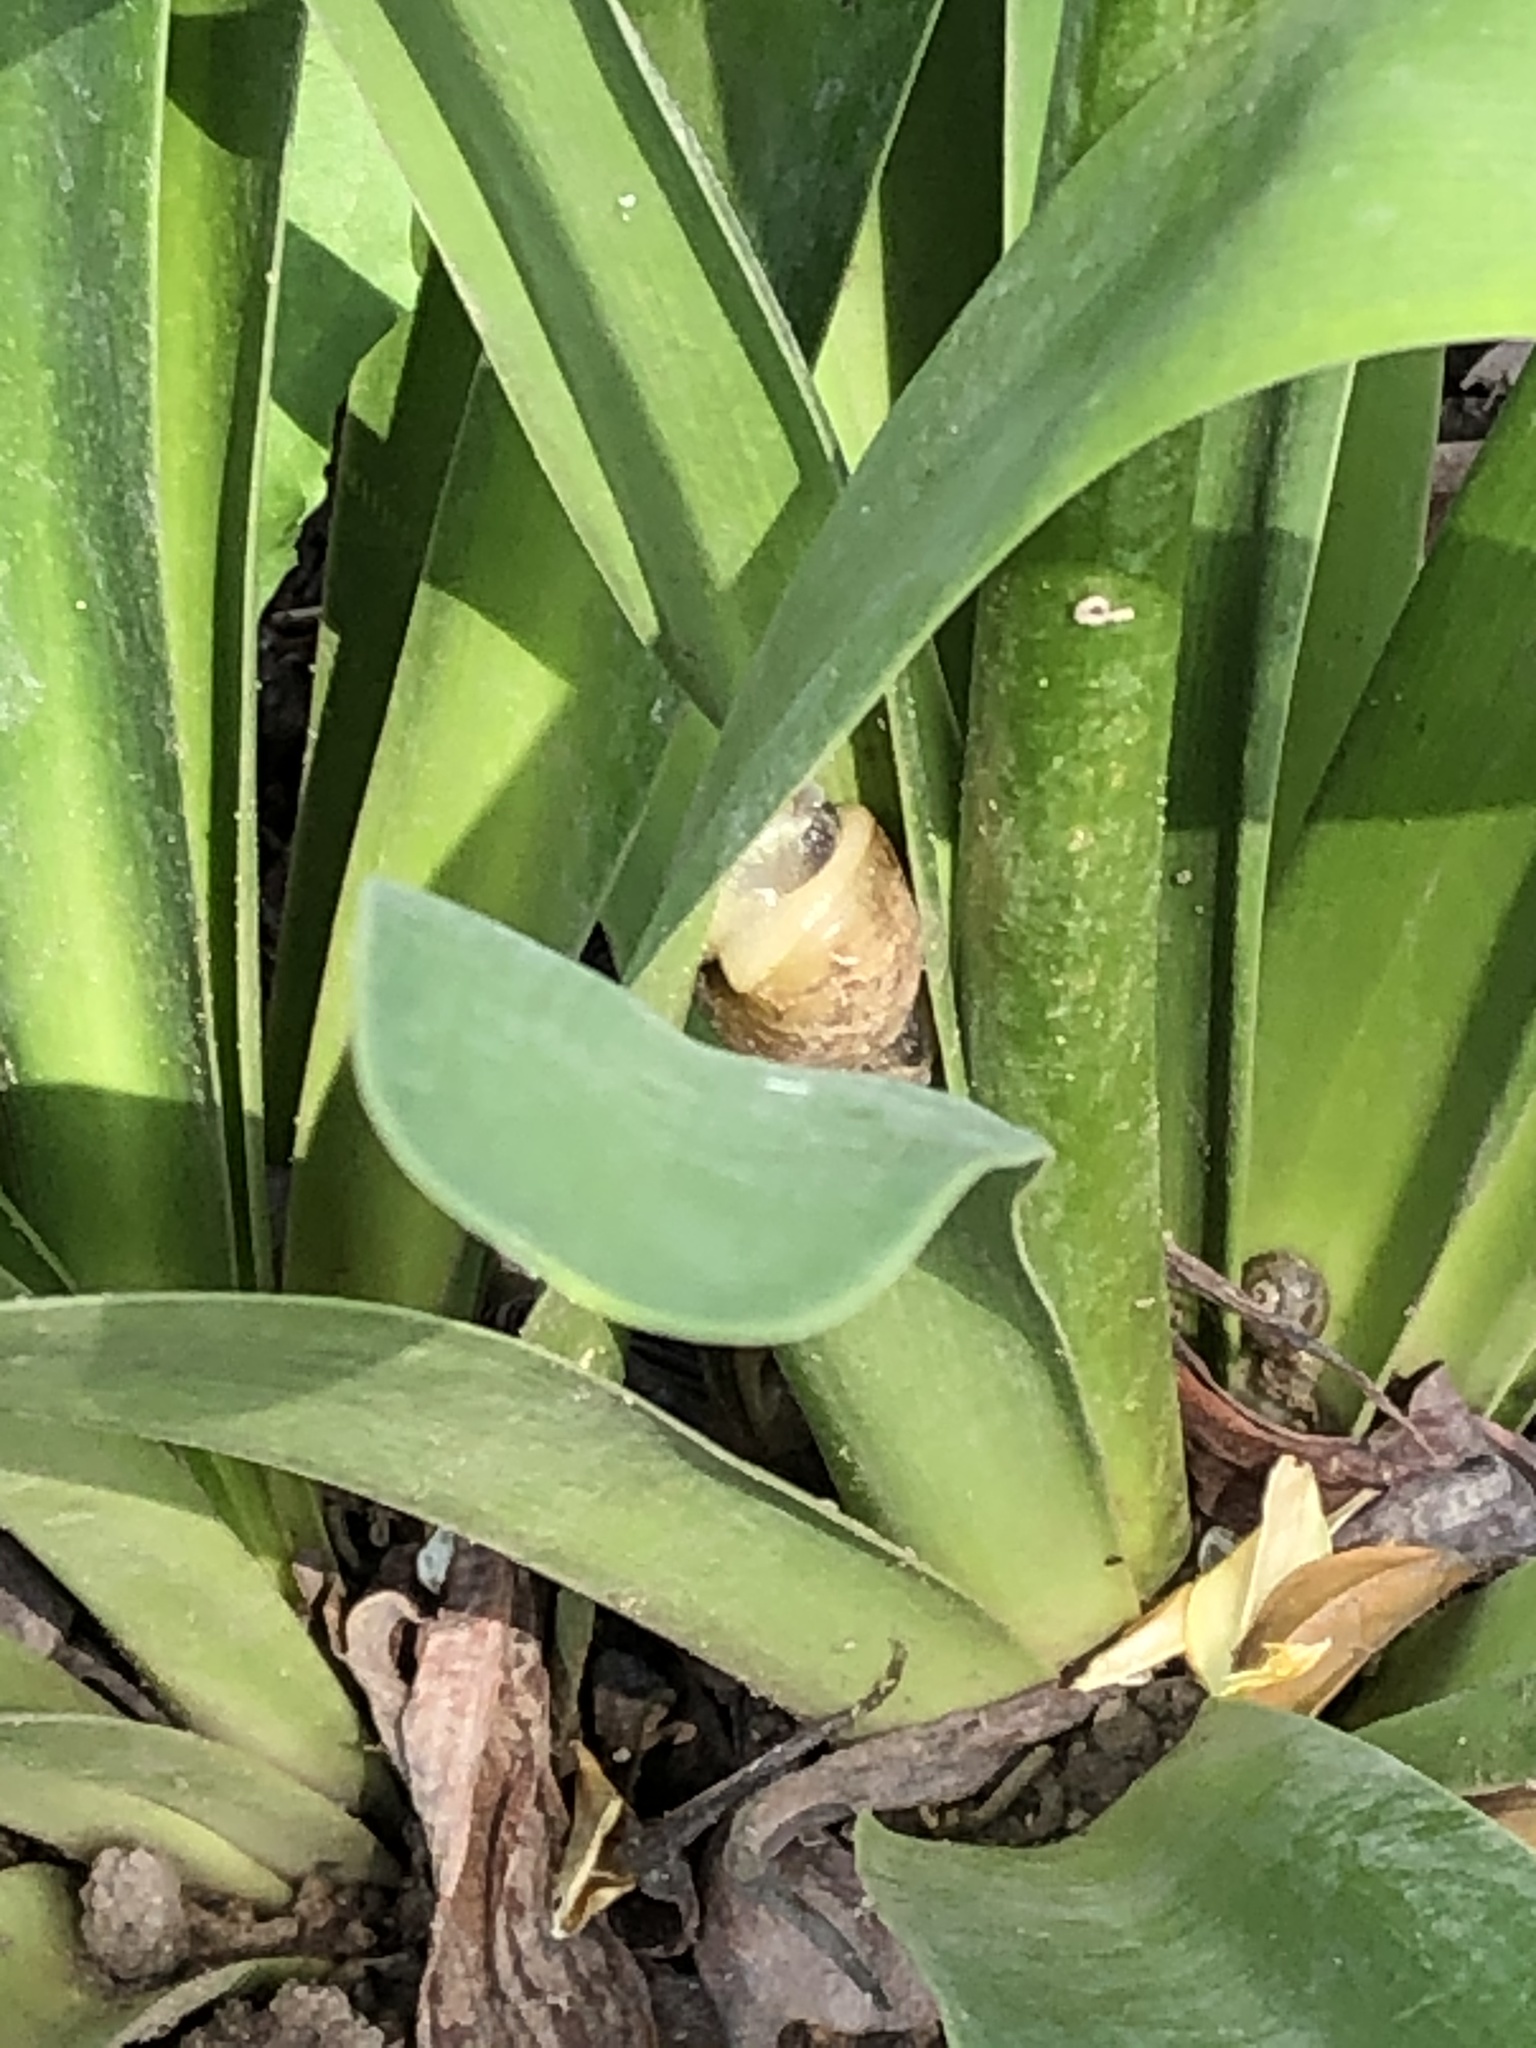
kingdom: Animalia
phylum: Mollusca
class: Gastropoda
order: Stylommatophora
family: Helicidae
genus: Cornu
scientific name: Cornu aspersum
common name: Brown garden snail
